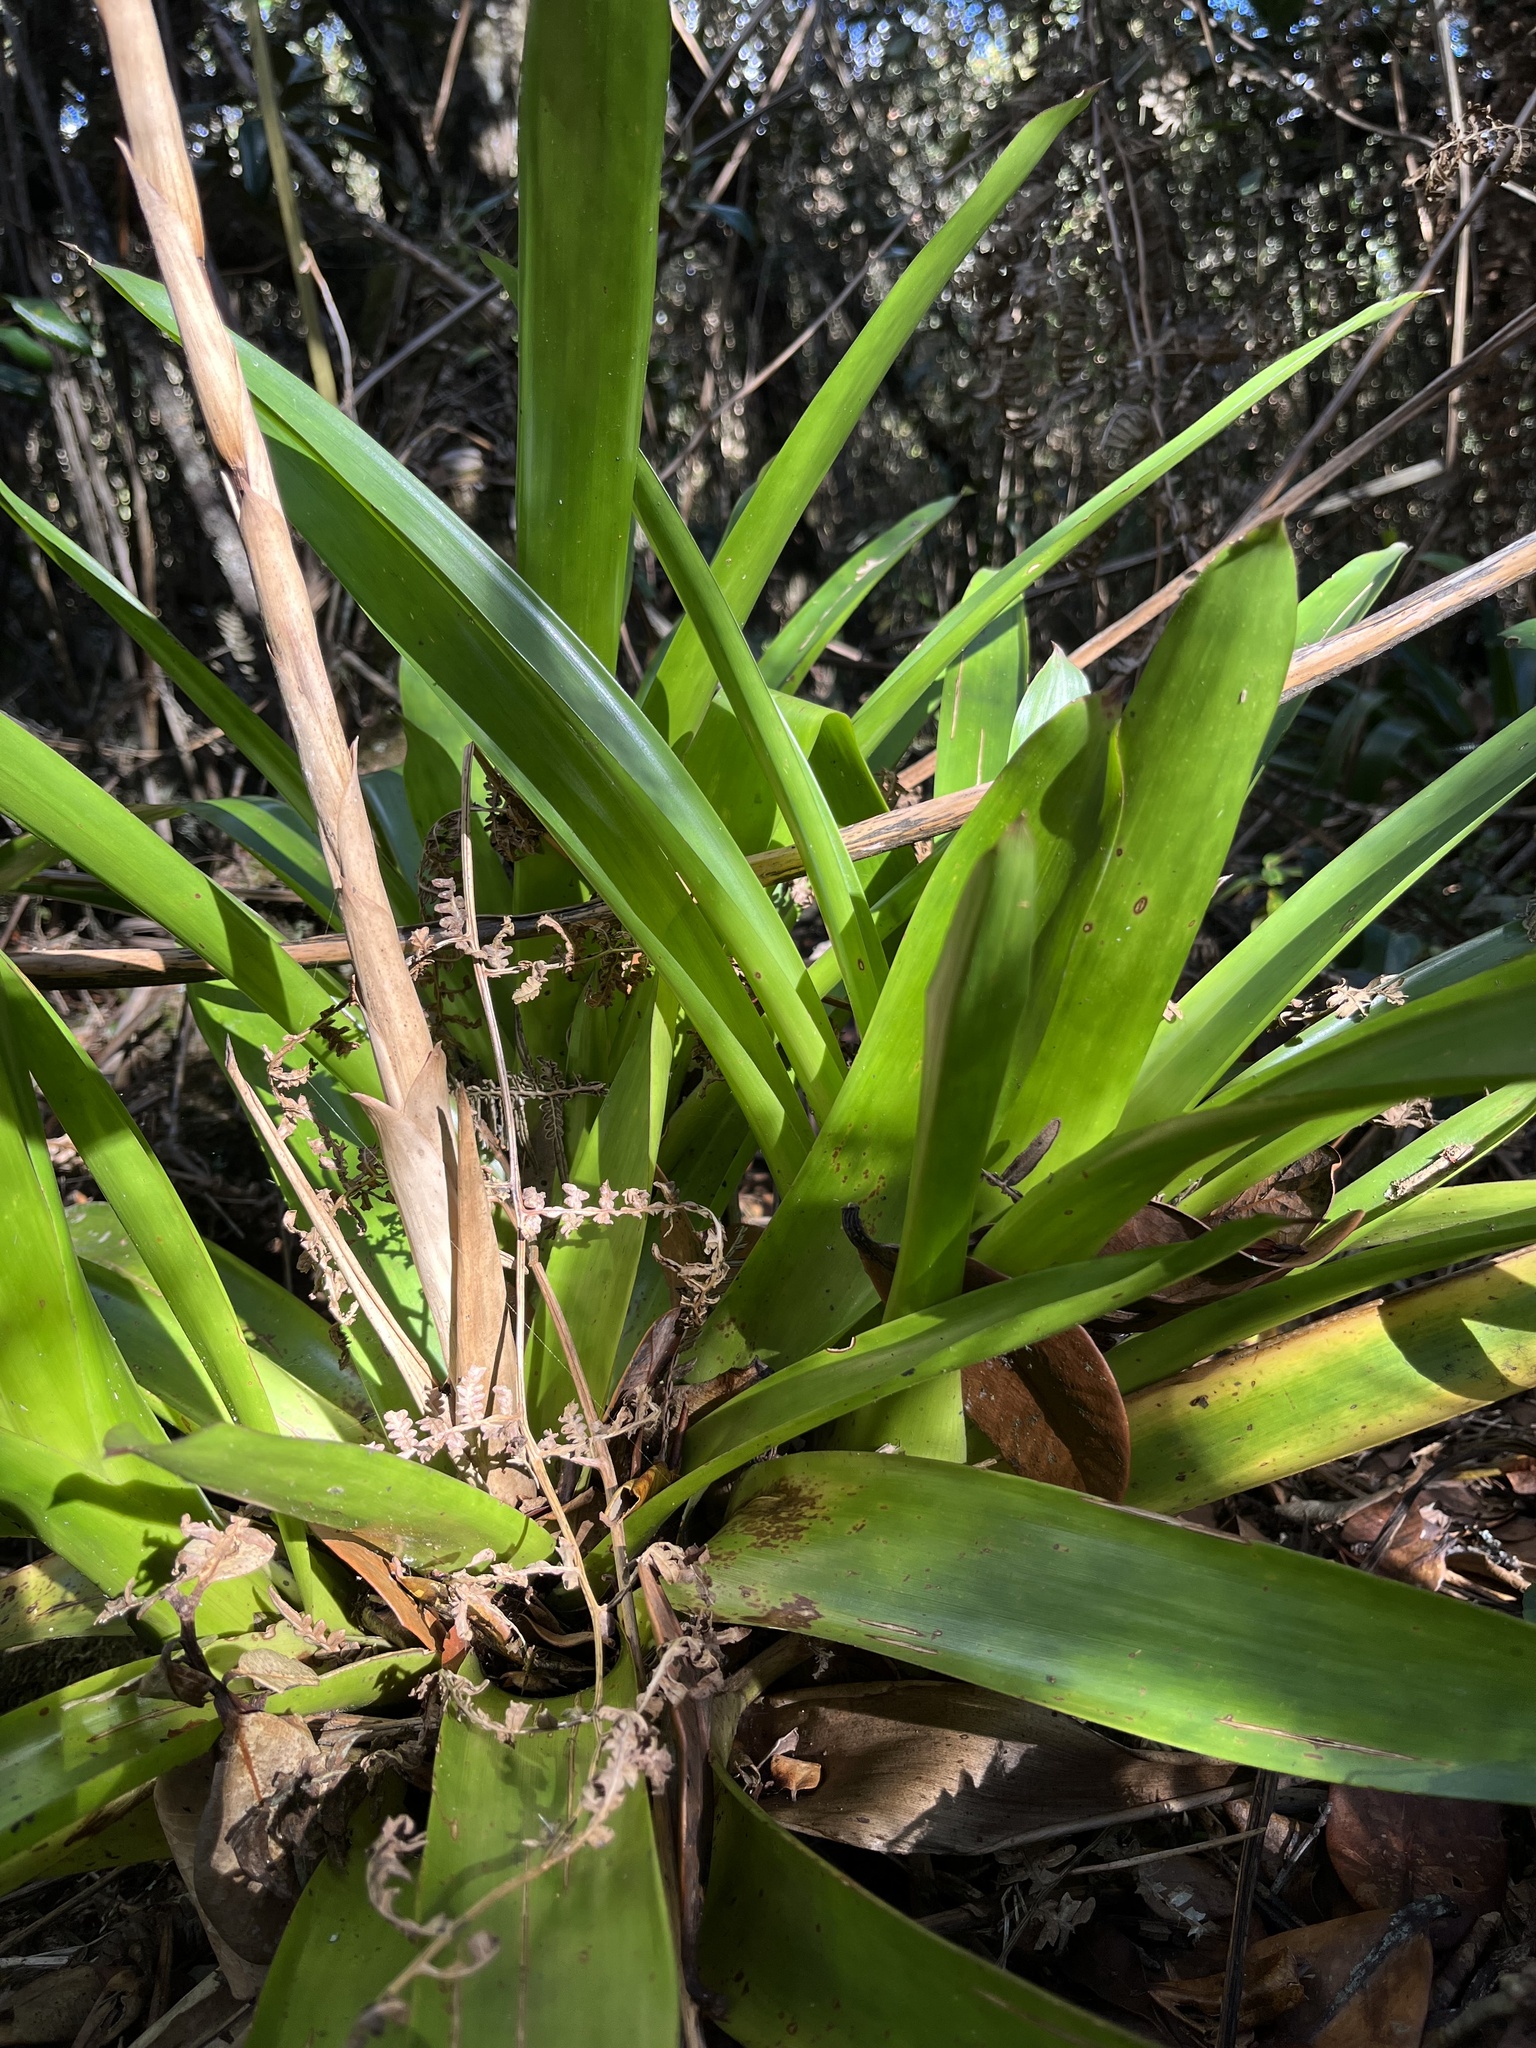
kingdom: Plantae
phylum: Tracheophyta
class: Liliopsida
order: Poales
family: Bromeliaceae
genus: Guzmania
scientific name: Guzmania mitis
